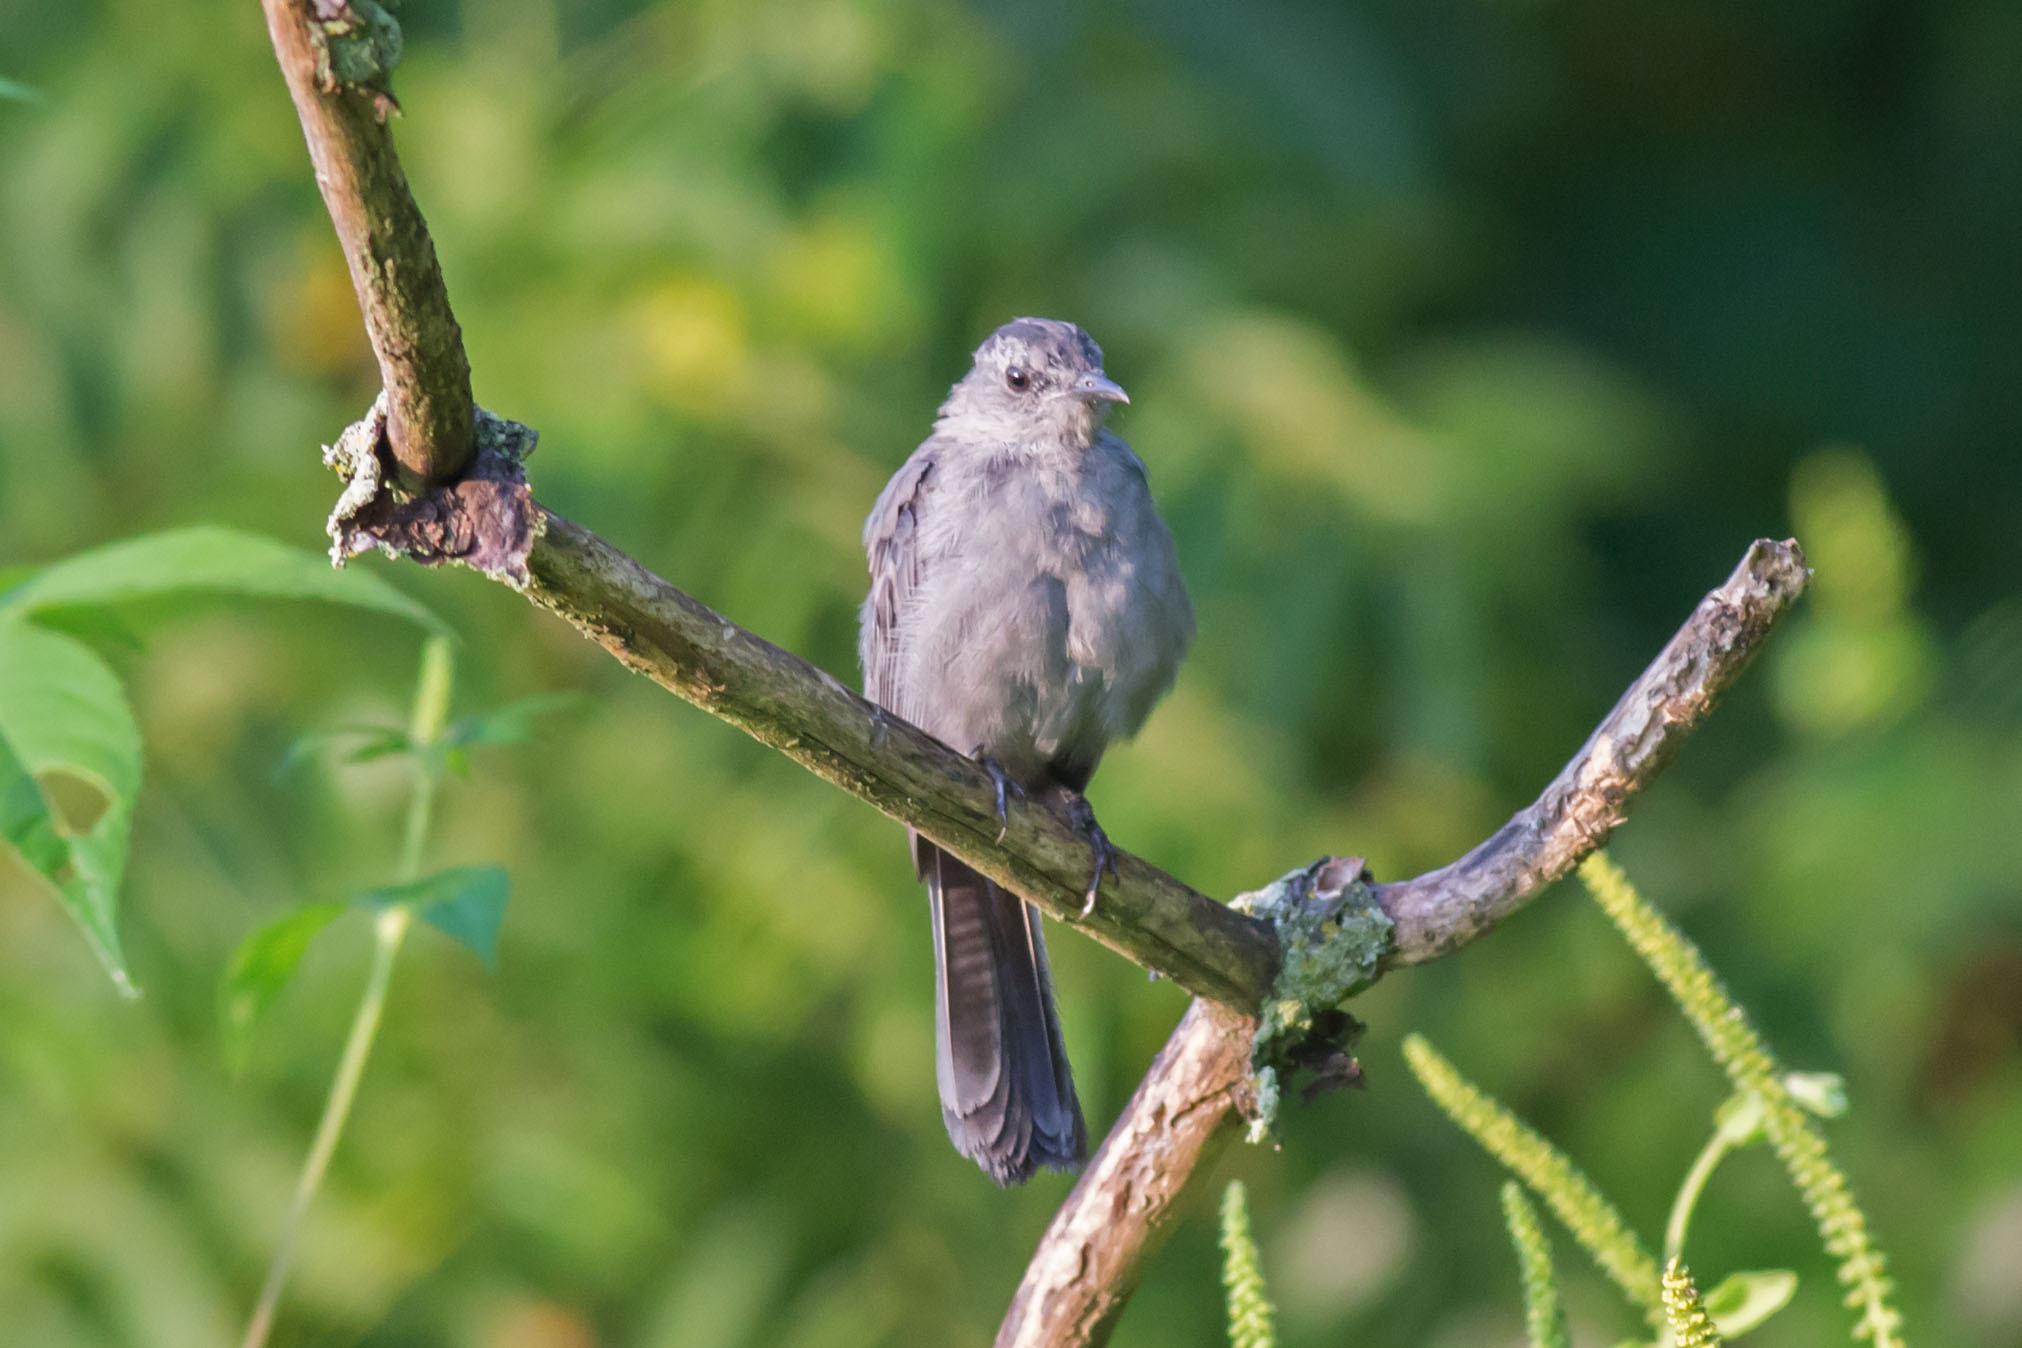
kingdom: Animalia
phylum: Chordata
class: Aves
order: Passeriformes
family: Mimidae
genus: Dumetella
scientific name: Dumetella carolinensis
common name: Gray catbird
